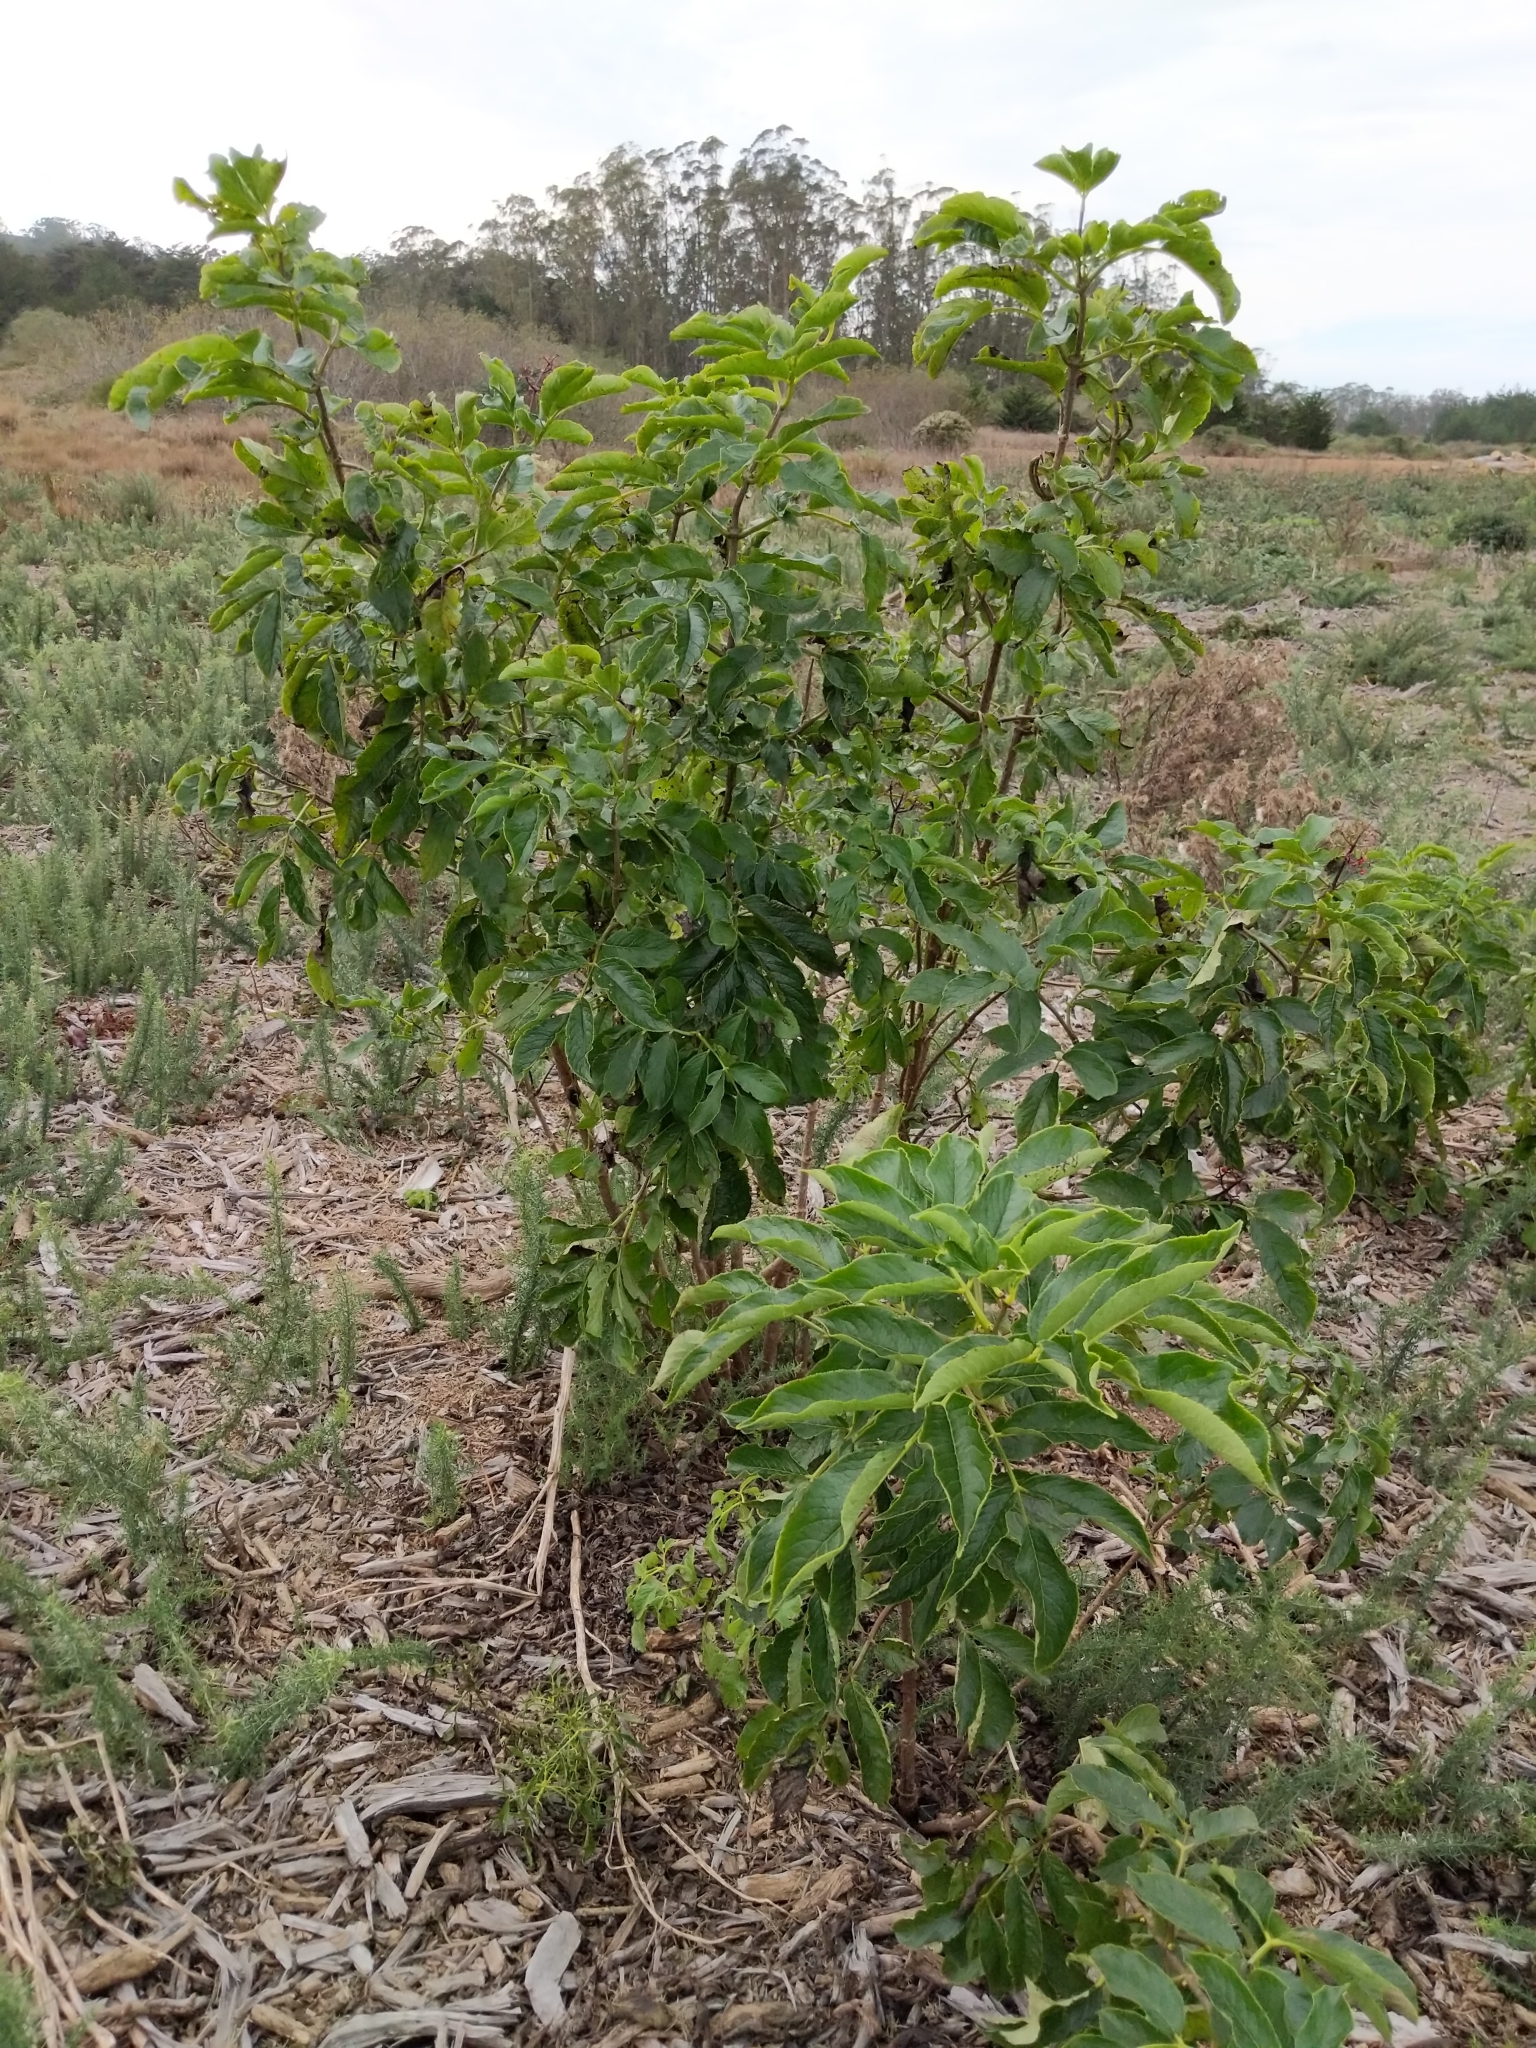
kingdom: Plantae
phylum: Tracheophyta
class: Magnoliopsida
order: Dipsacales
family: Viburnaceae
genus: Sambucus
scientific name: Sambucus racemosa
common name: Red-berried elder
